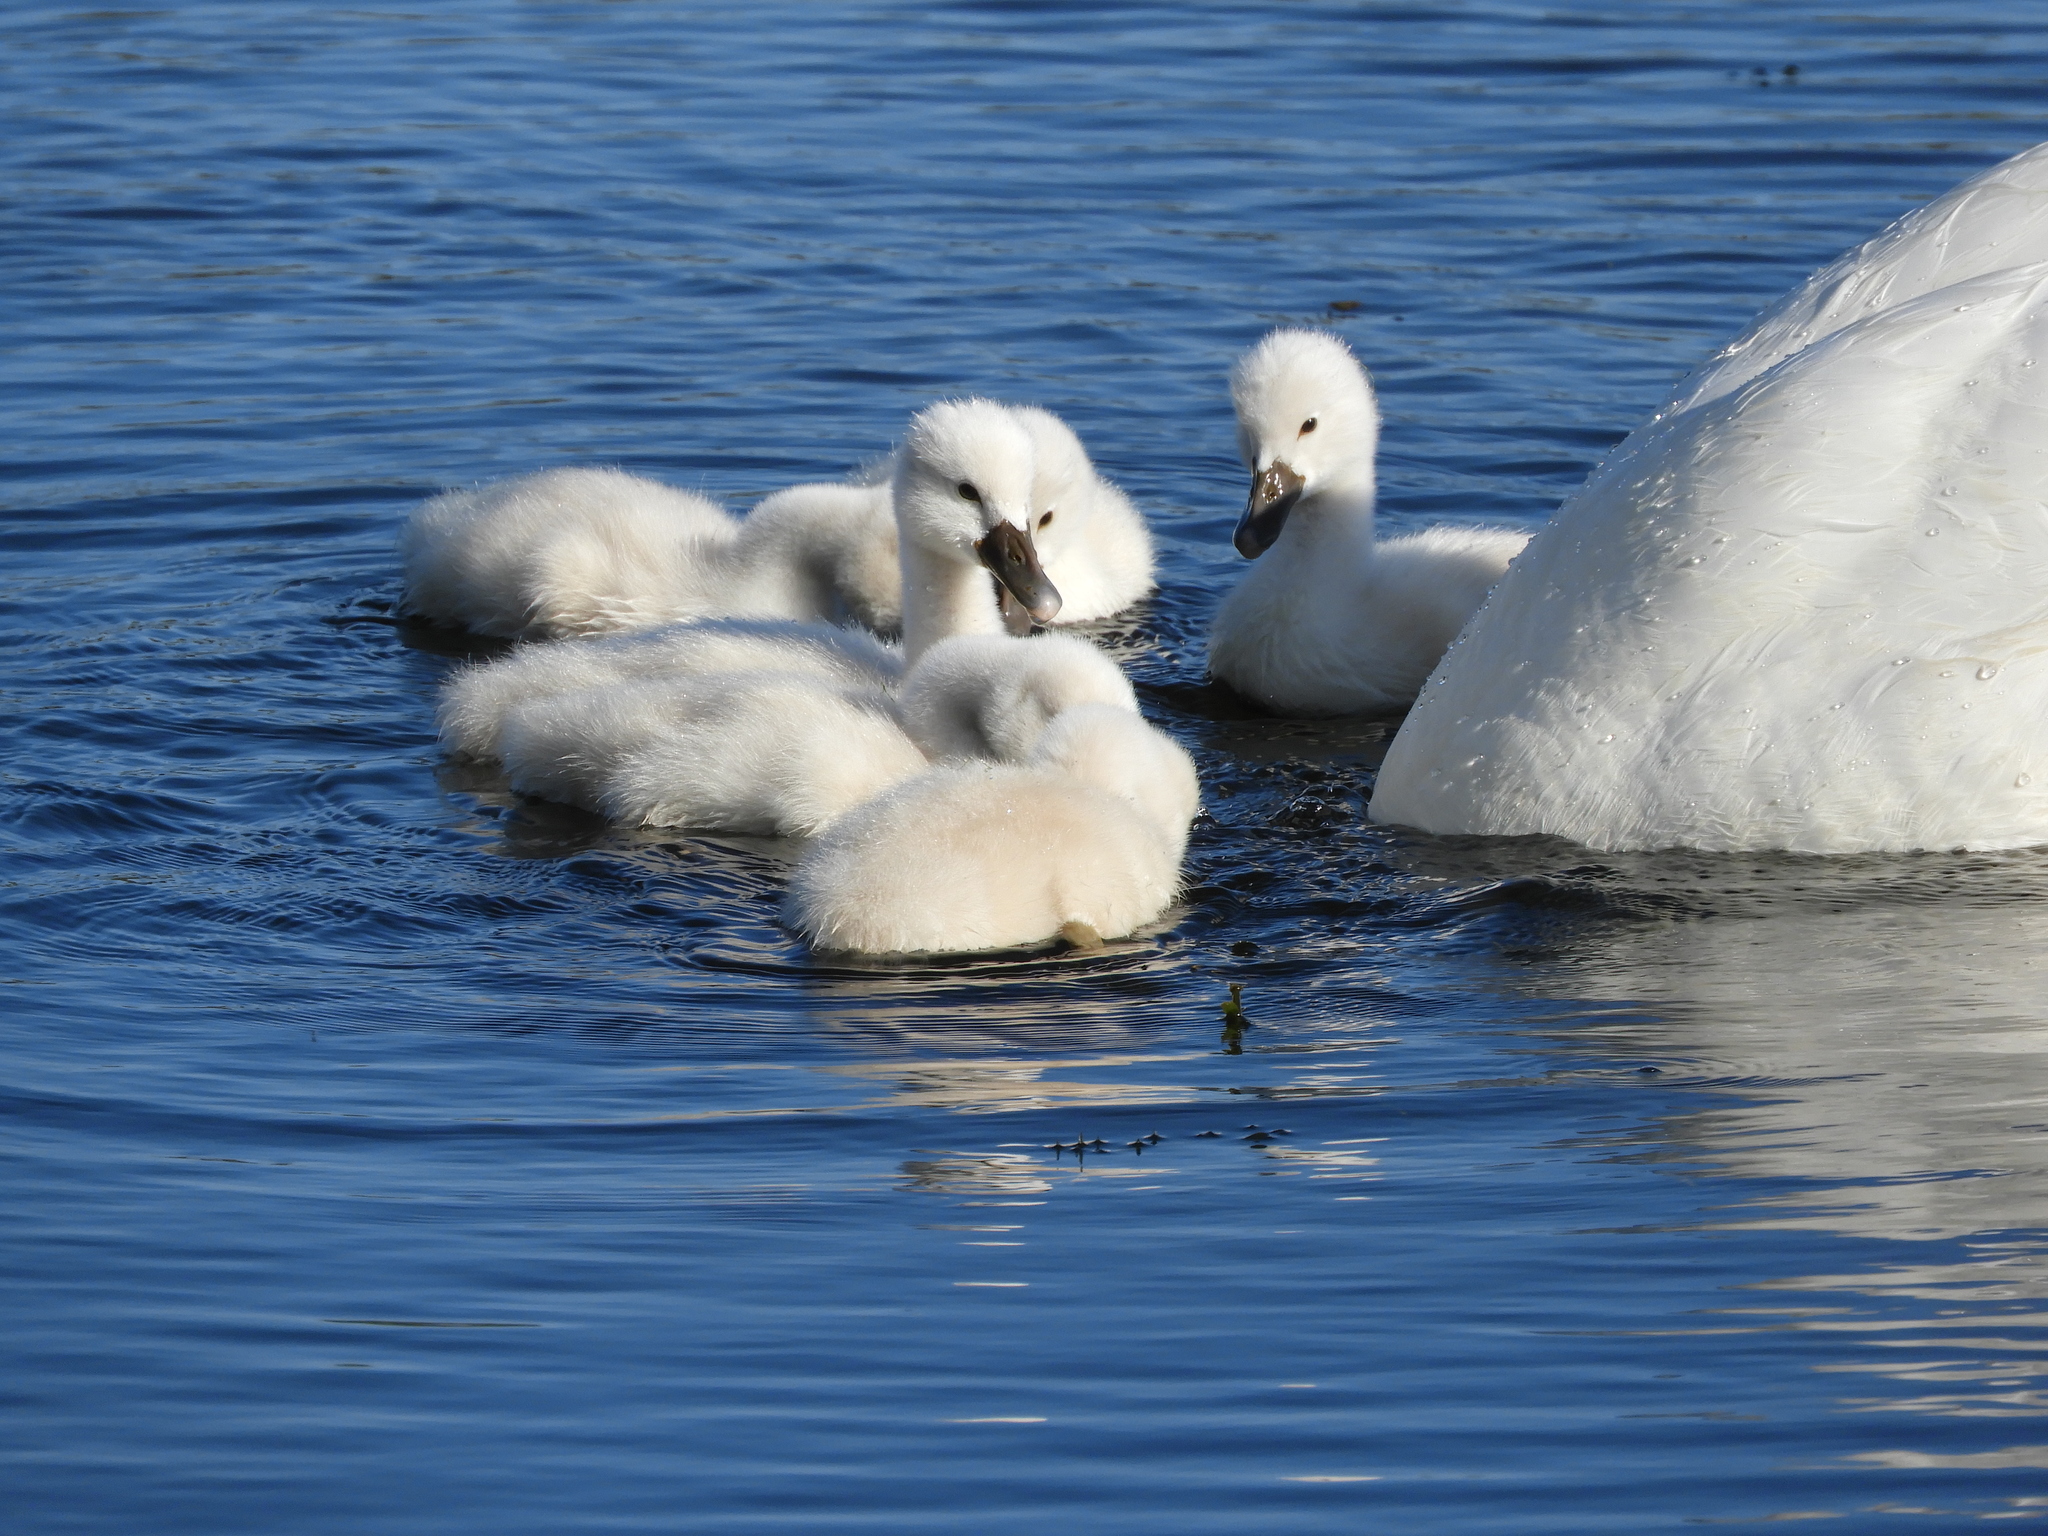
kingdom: Animalia
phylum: Chordata
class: Aves
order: Anseriformes
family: Anatidae
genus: Cygnus
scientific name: Cygnus olor
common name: Mute swan
